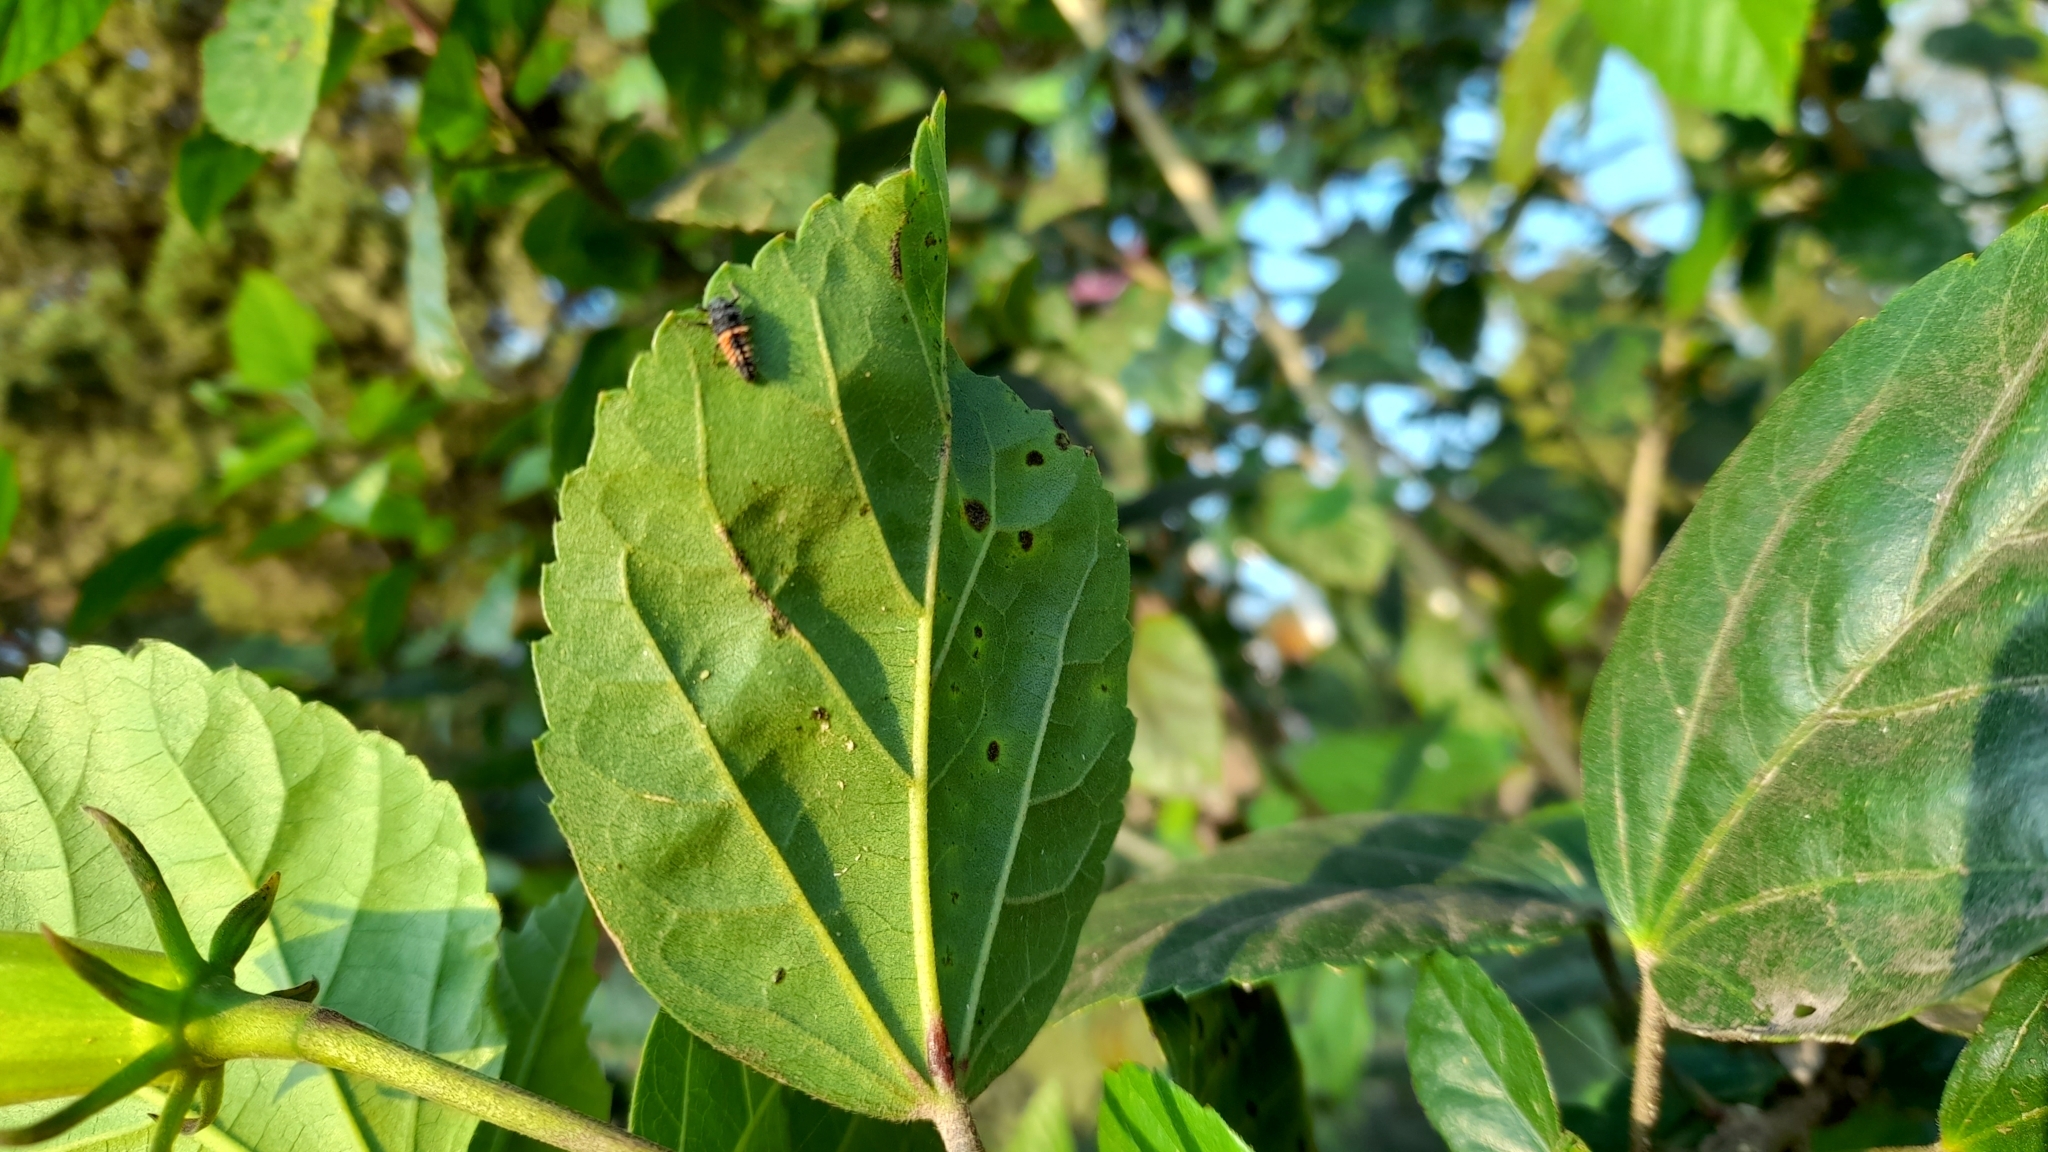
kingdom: Animalia
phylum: Arthropoda
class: Insecta
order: Coleoptera
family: Coccinellidae
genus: Harmonia
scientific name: Harmonia axyridis
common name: Harlequin ladybird
